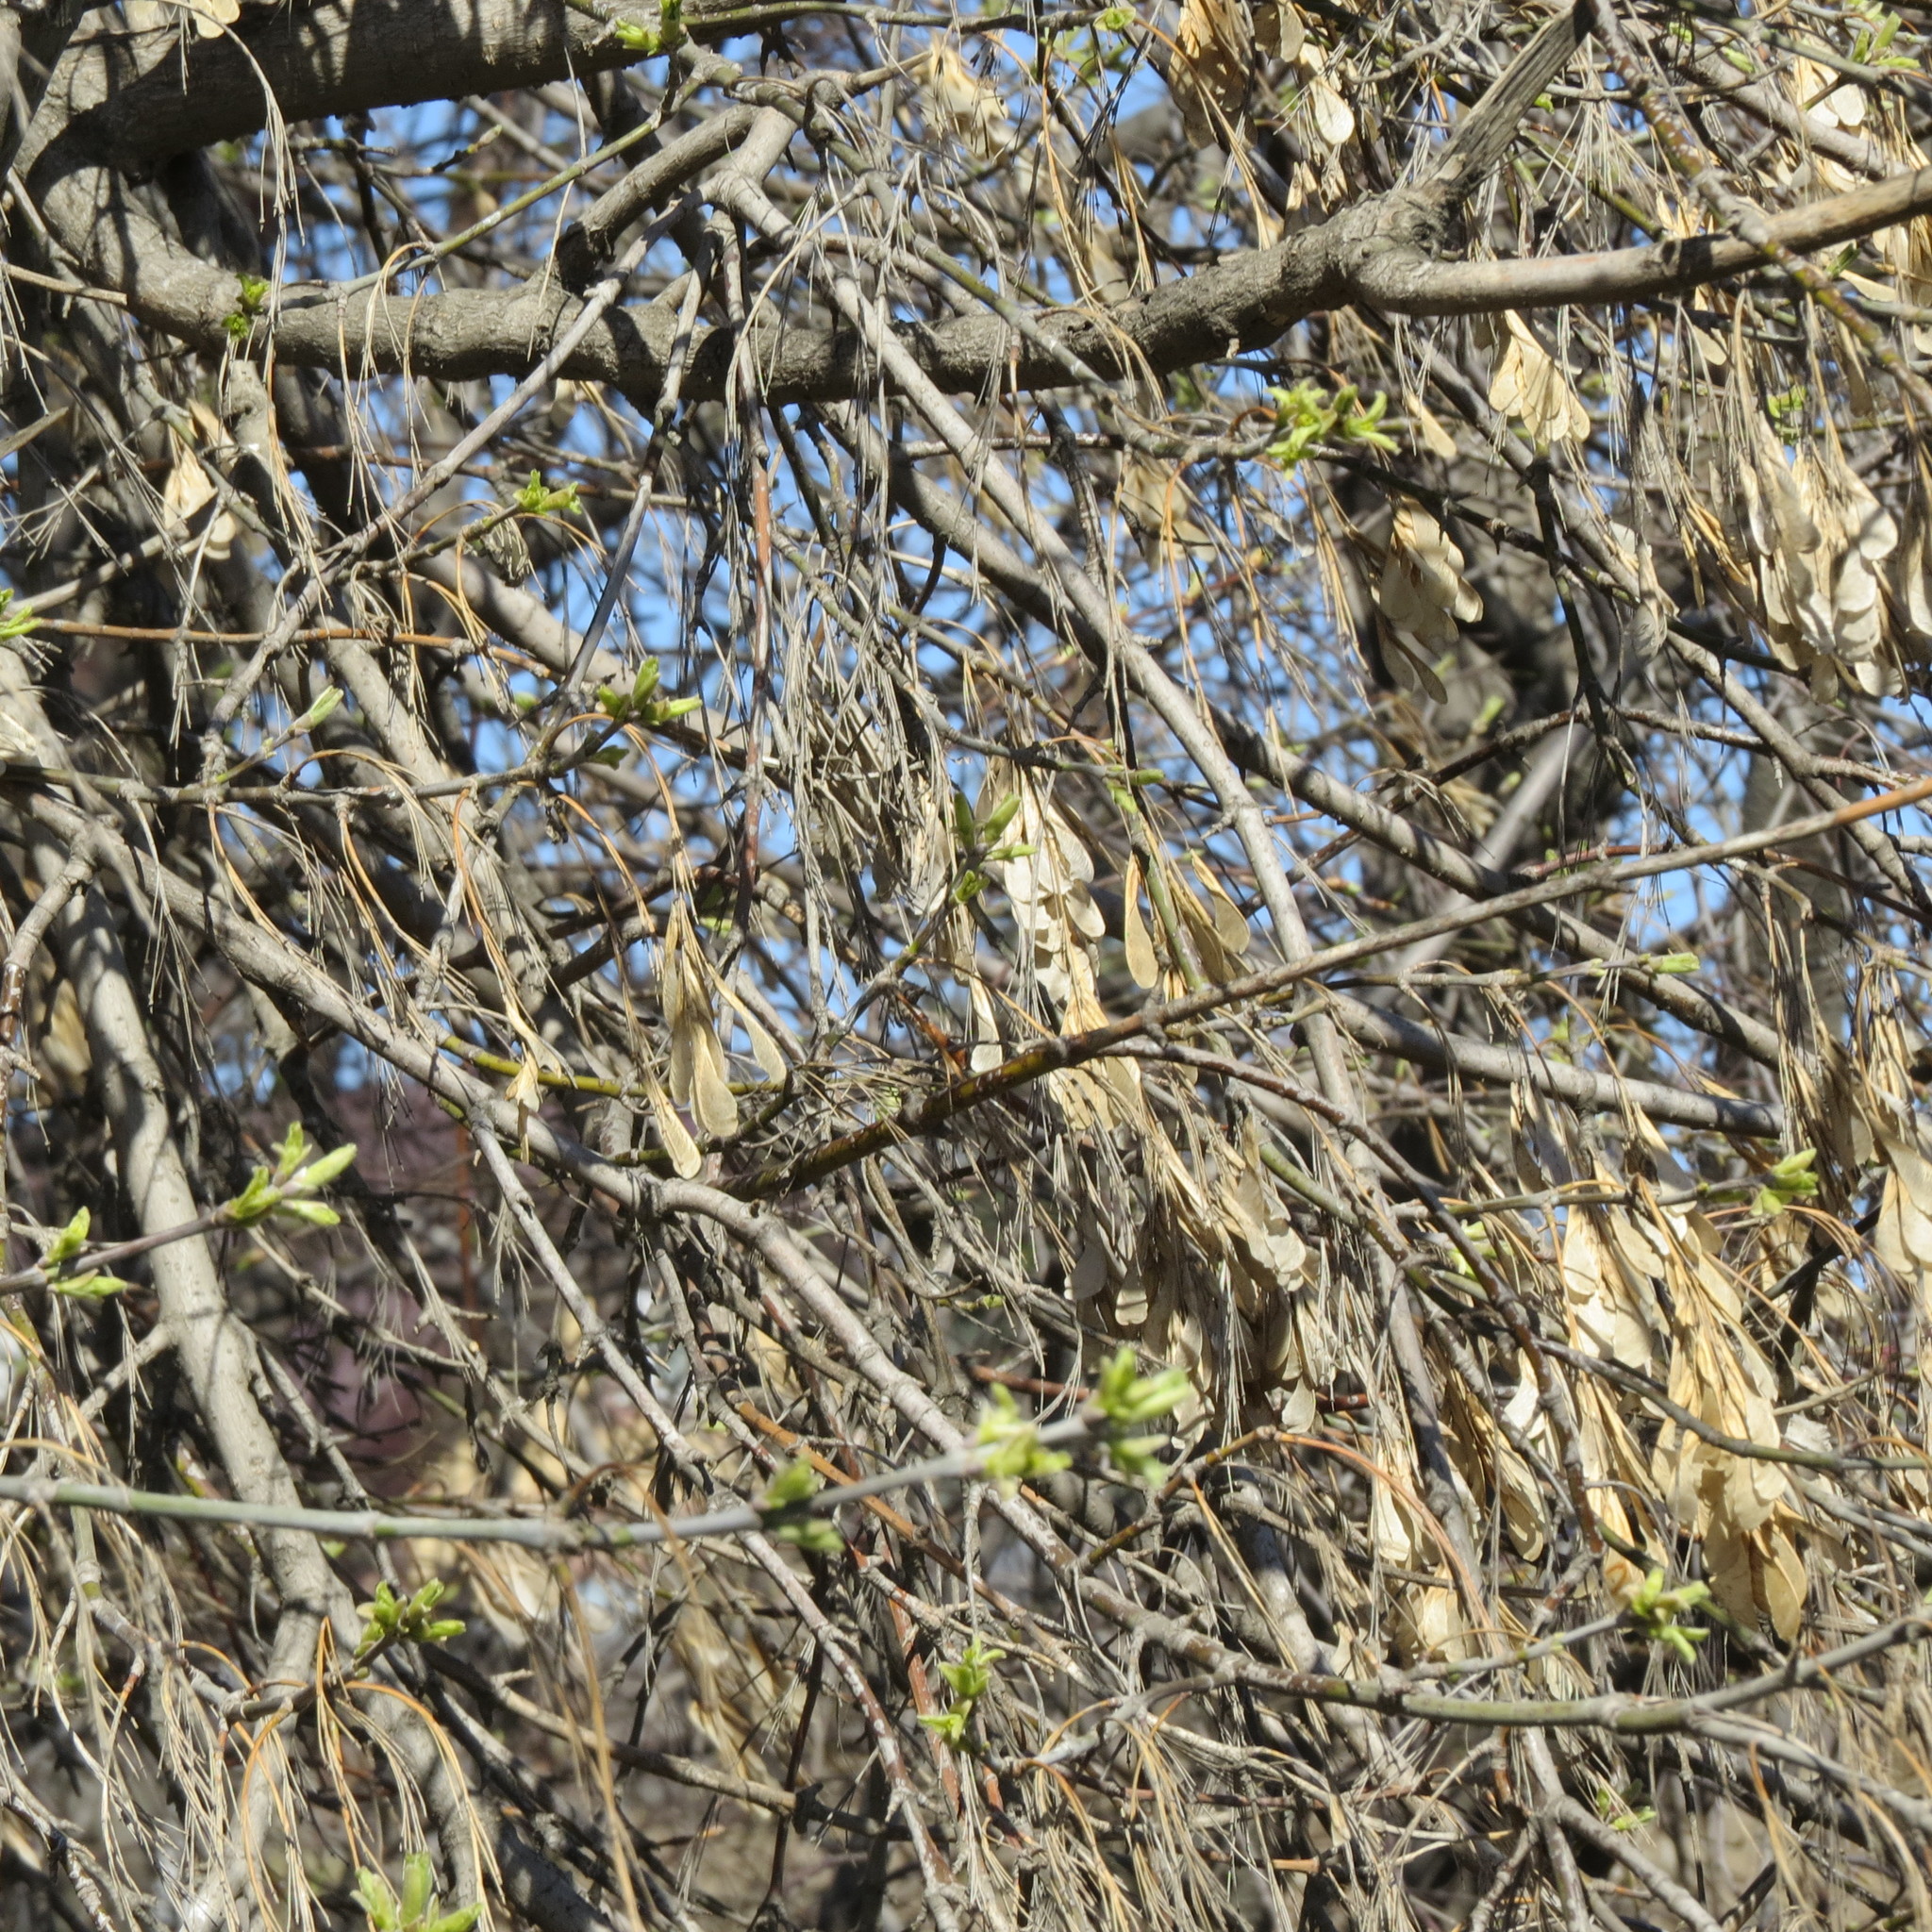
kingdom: Plantae
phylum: Tracheophyta
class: Magnoliopsida
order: Sapindales
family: Sapindaceae
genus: Acer
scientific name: Acer negundo
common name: Ashleaf maple
